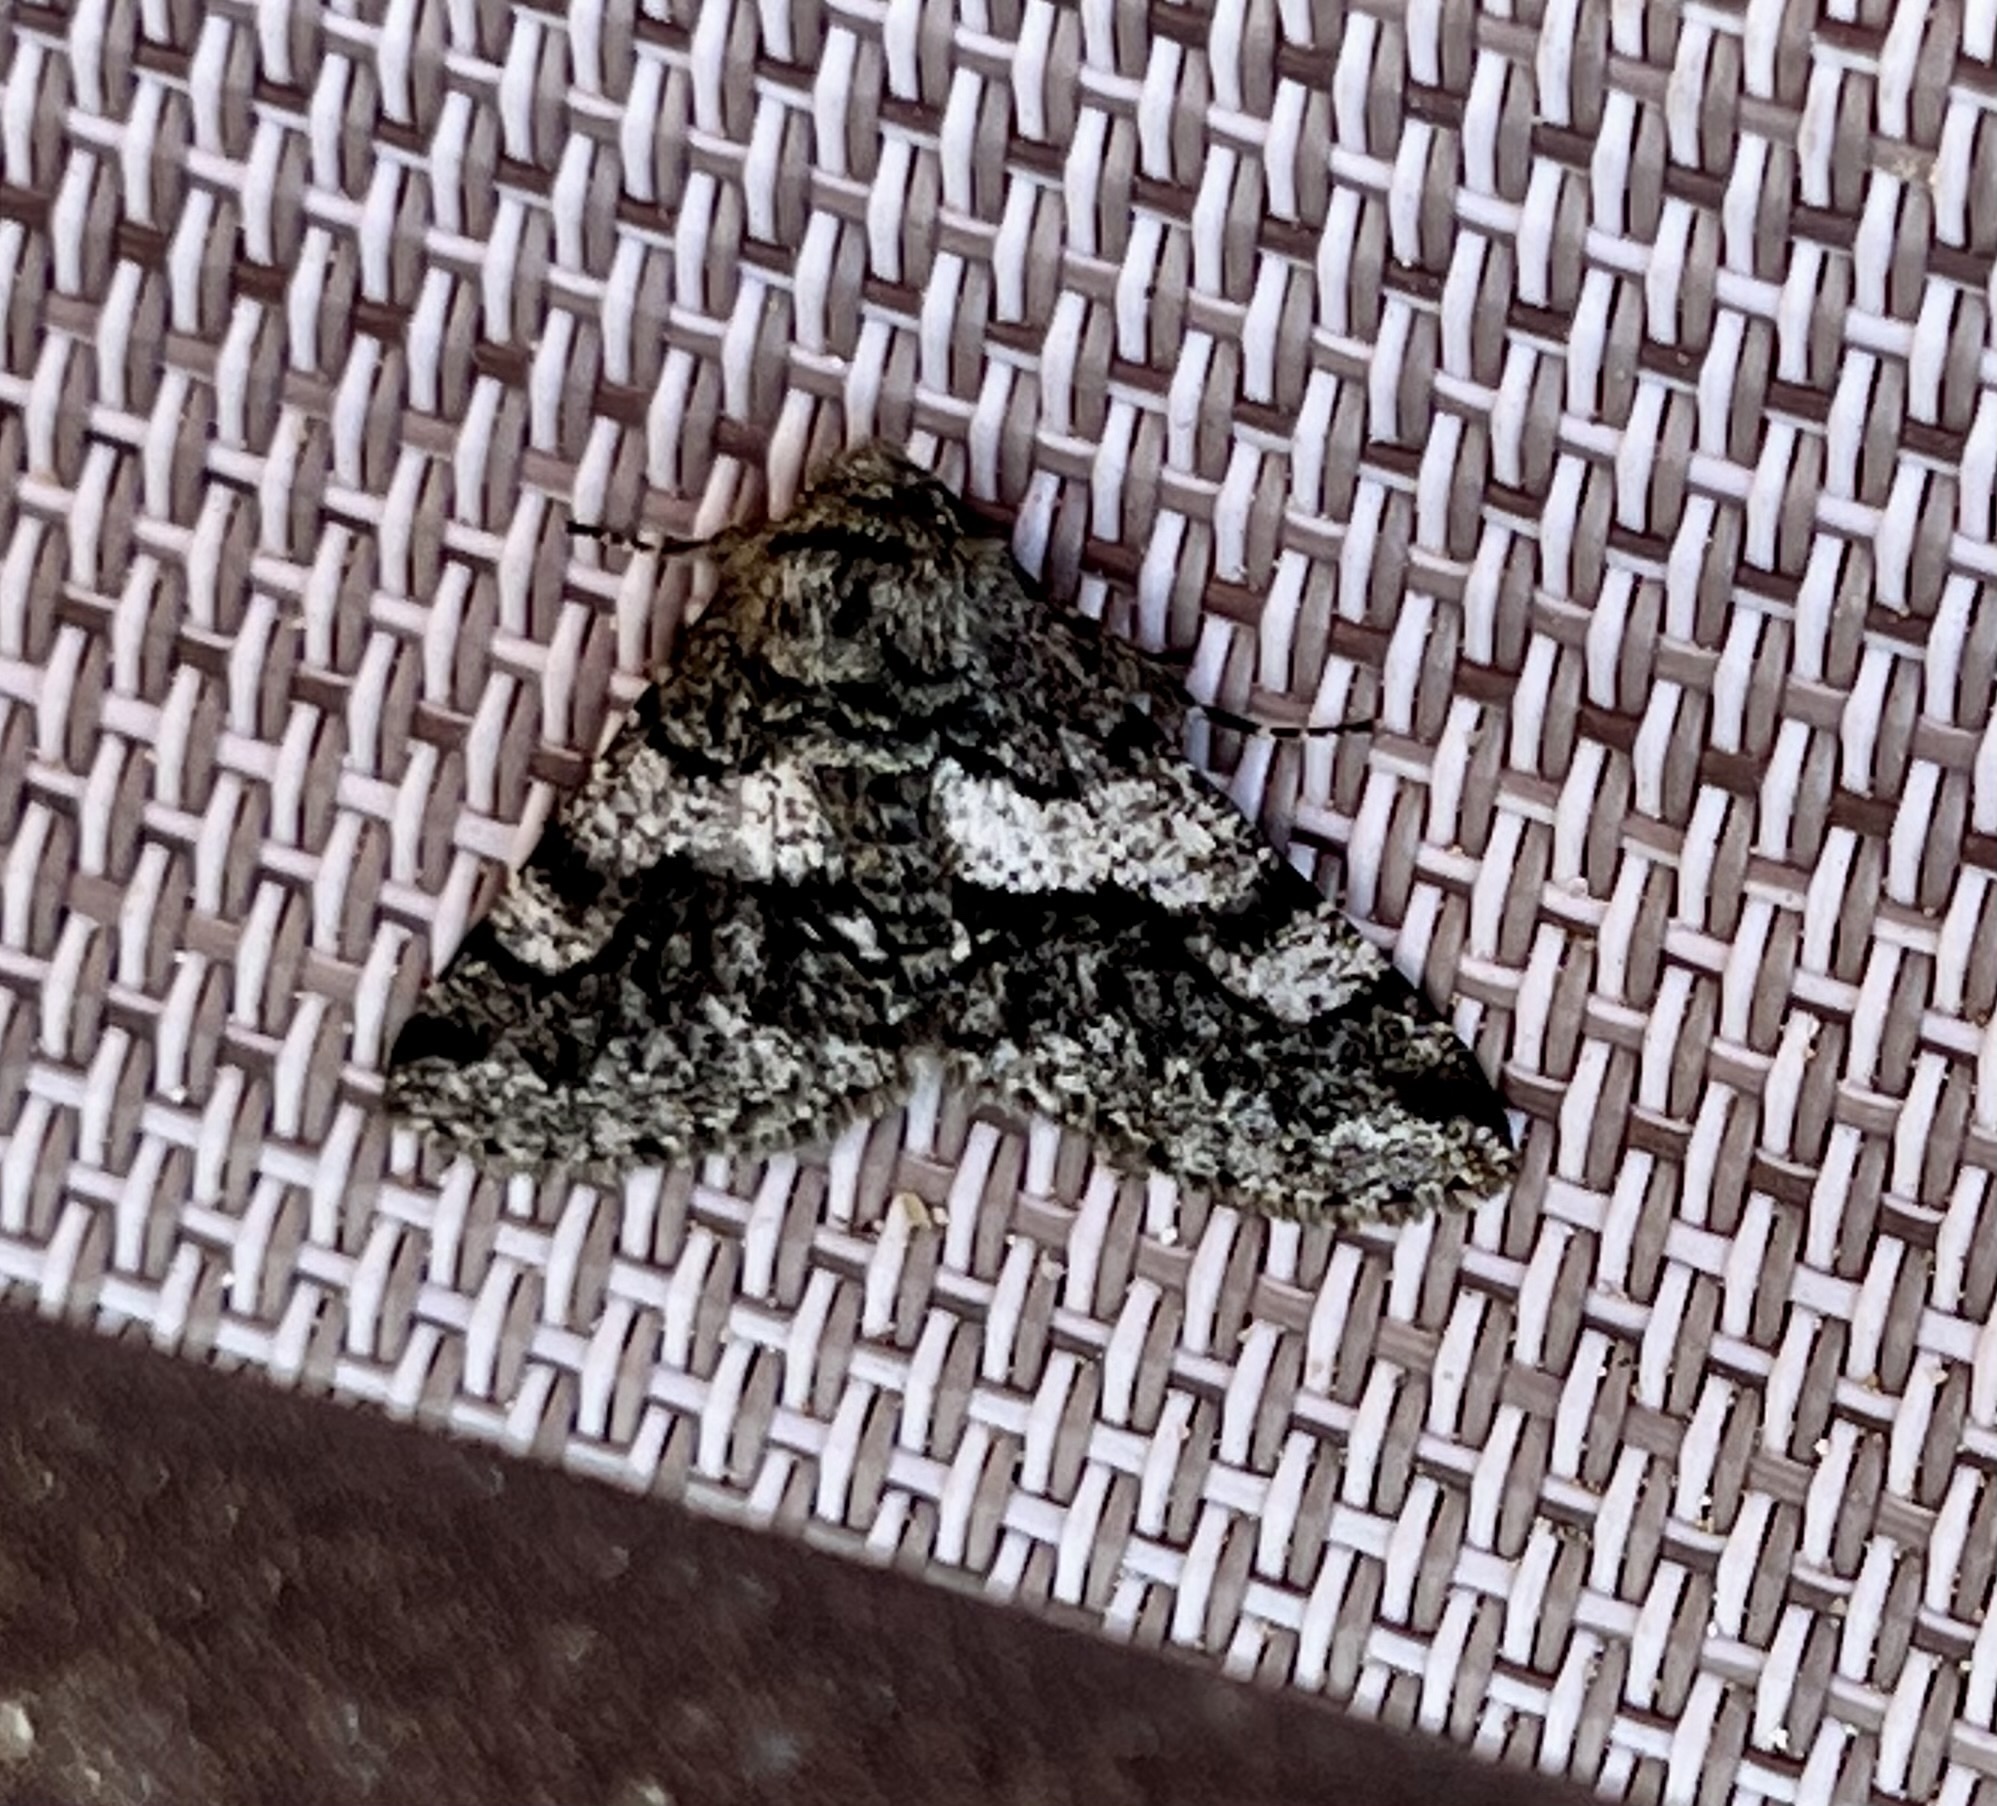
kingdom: Animalia
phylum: Arthropoda
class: Insecta
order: Lepidoptera
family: Geometridae
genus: Lycia
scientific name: Lycia ypsilon
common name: Wooly gray
